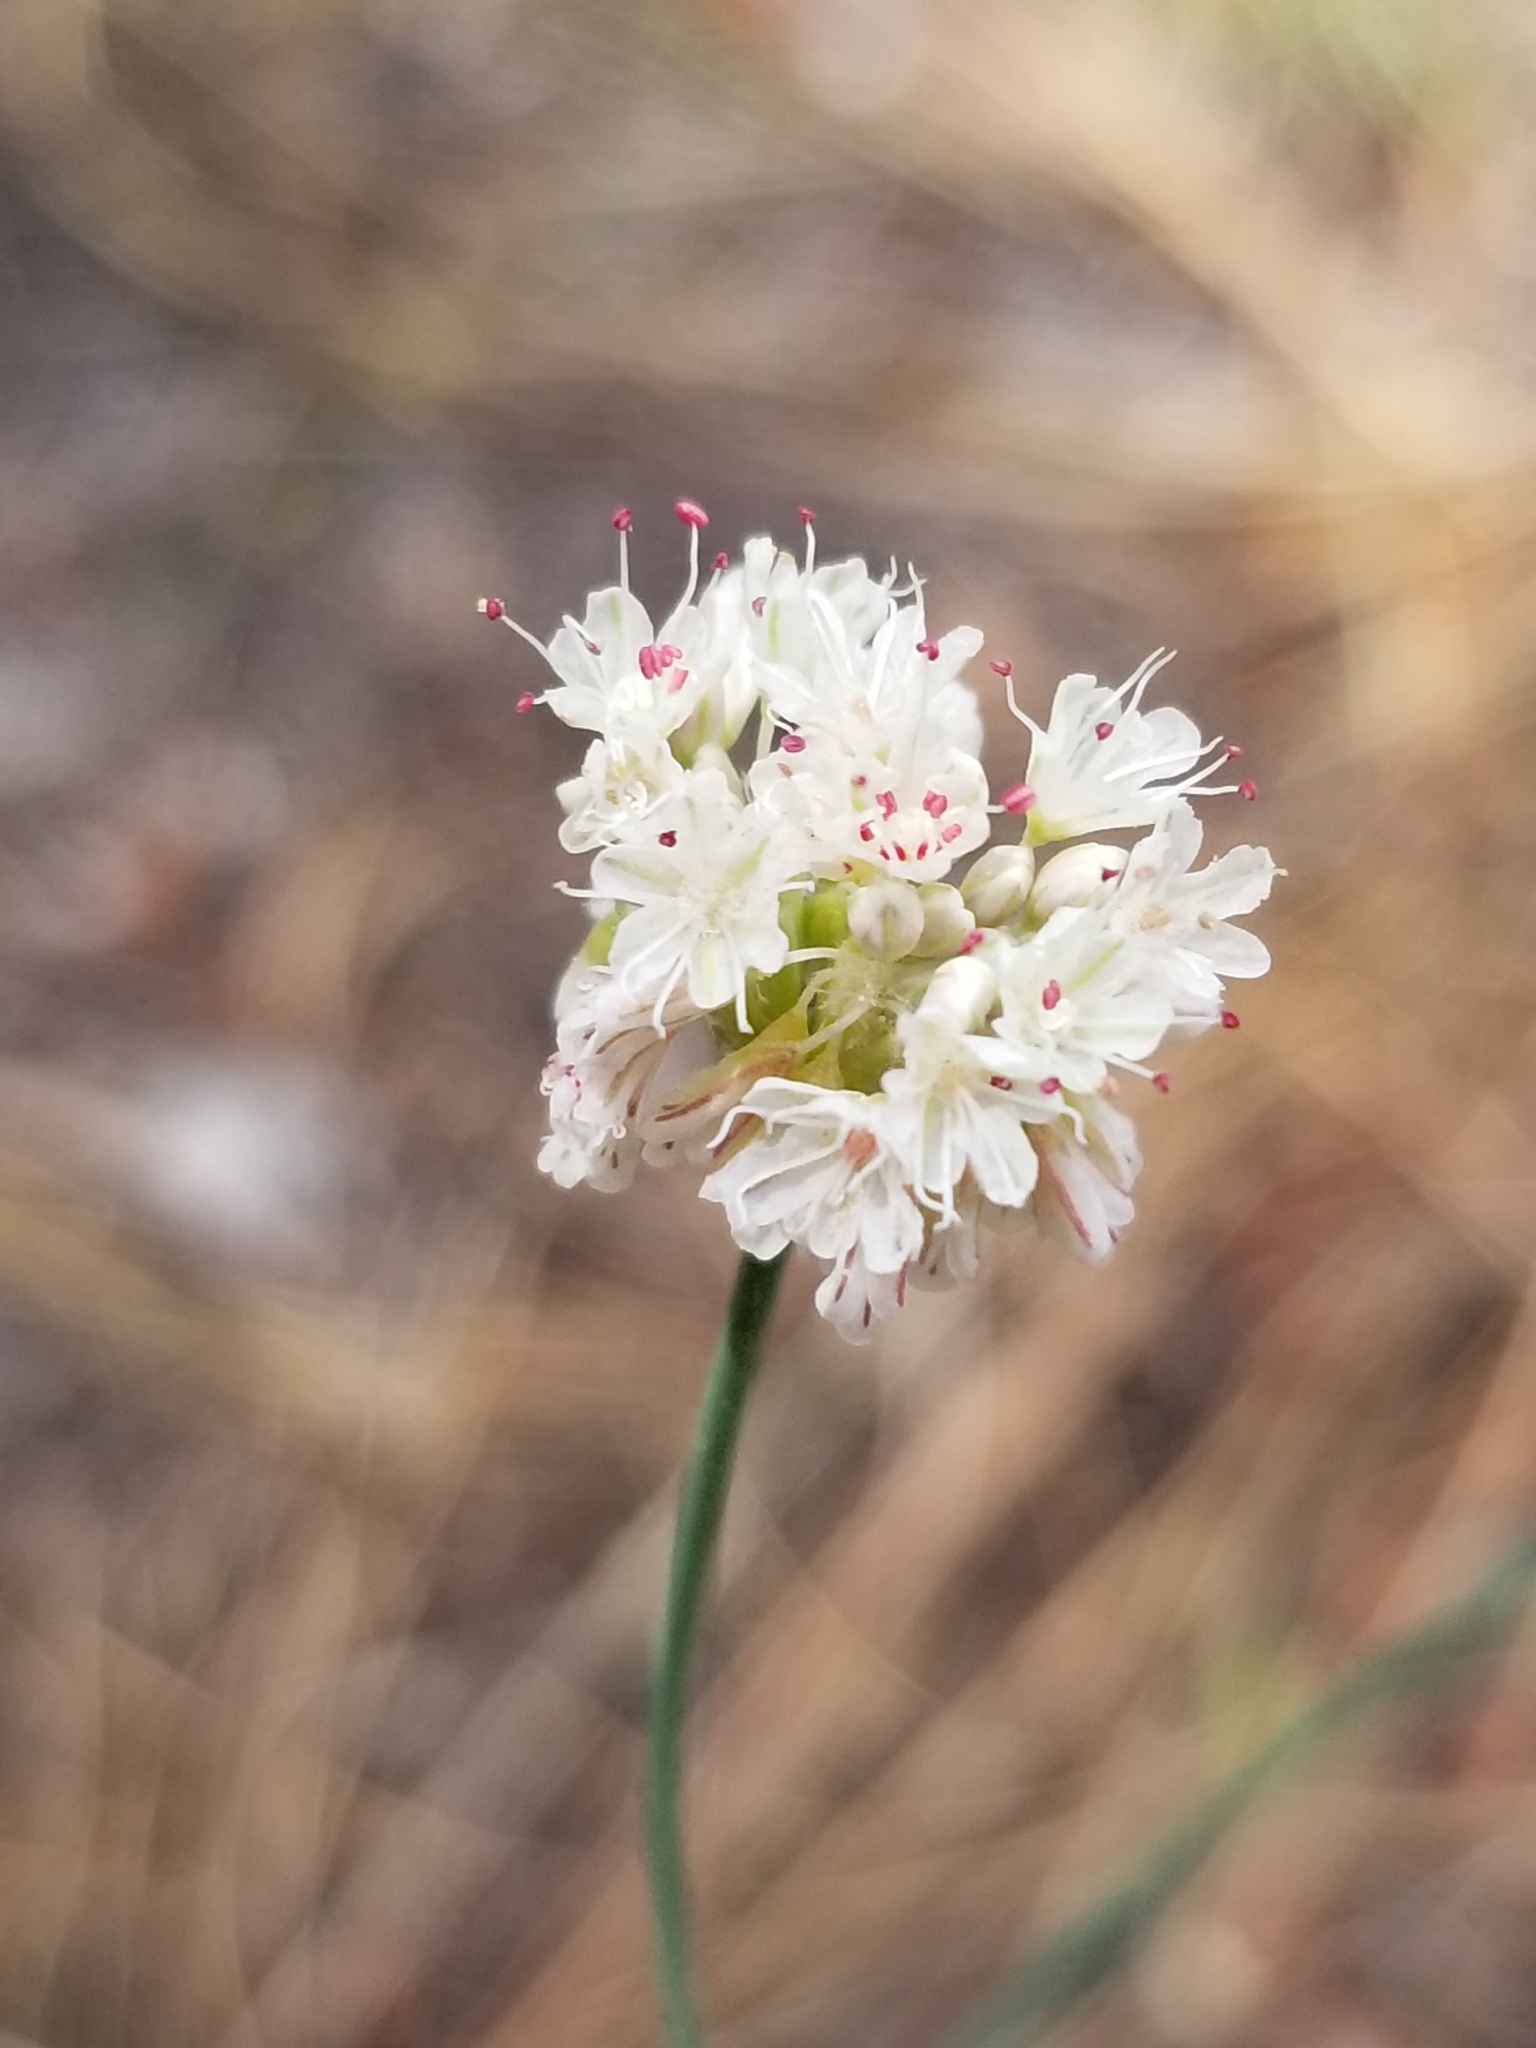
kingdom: Plantae
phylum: Tracheophyta
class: Magnoliopsida
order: Caryophyllales
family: Polygonaceae
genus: Eriogonum
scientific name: Eriogonum nudum
